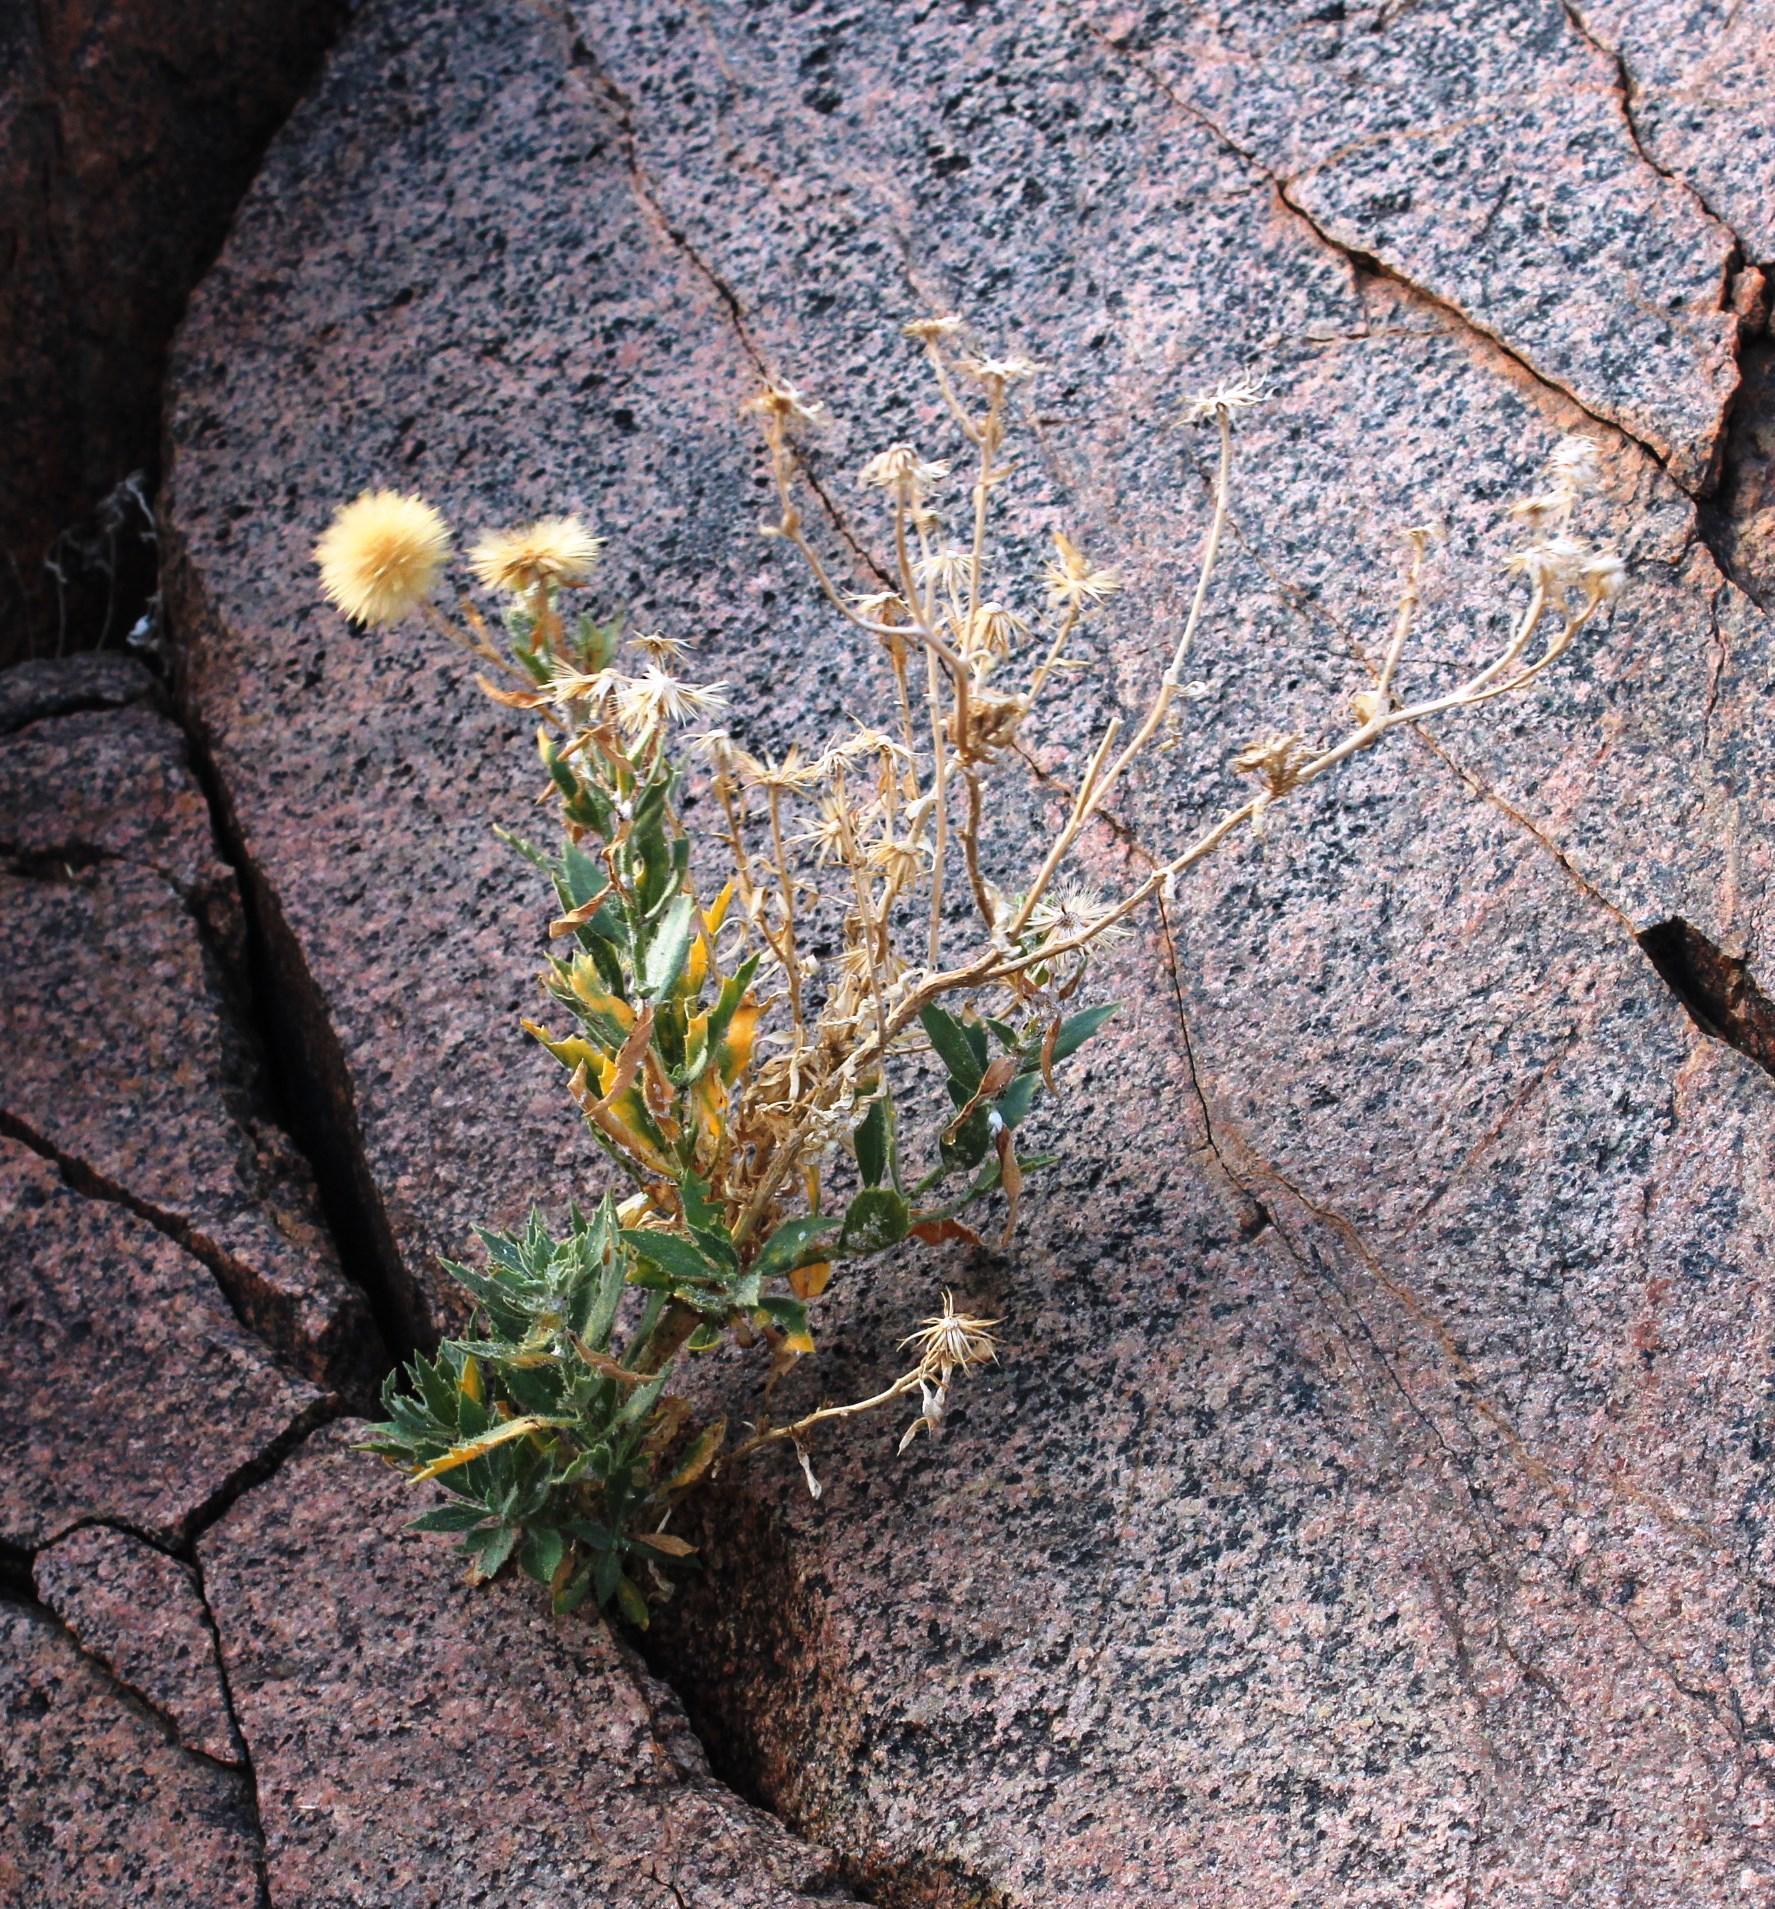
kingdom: Plantae
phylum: Tracheophyta
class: Magnoliopsida
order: Asterales
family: Asteraceae
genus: Pegolettia
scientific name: Pegolettia oxyodonta
